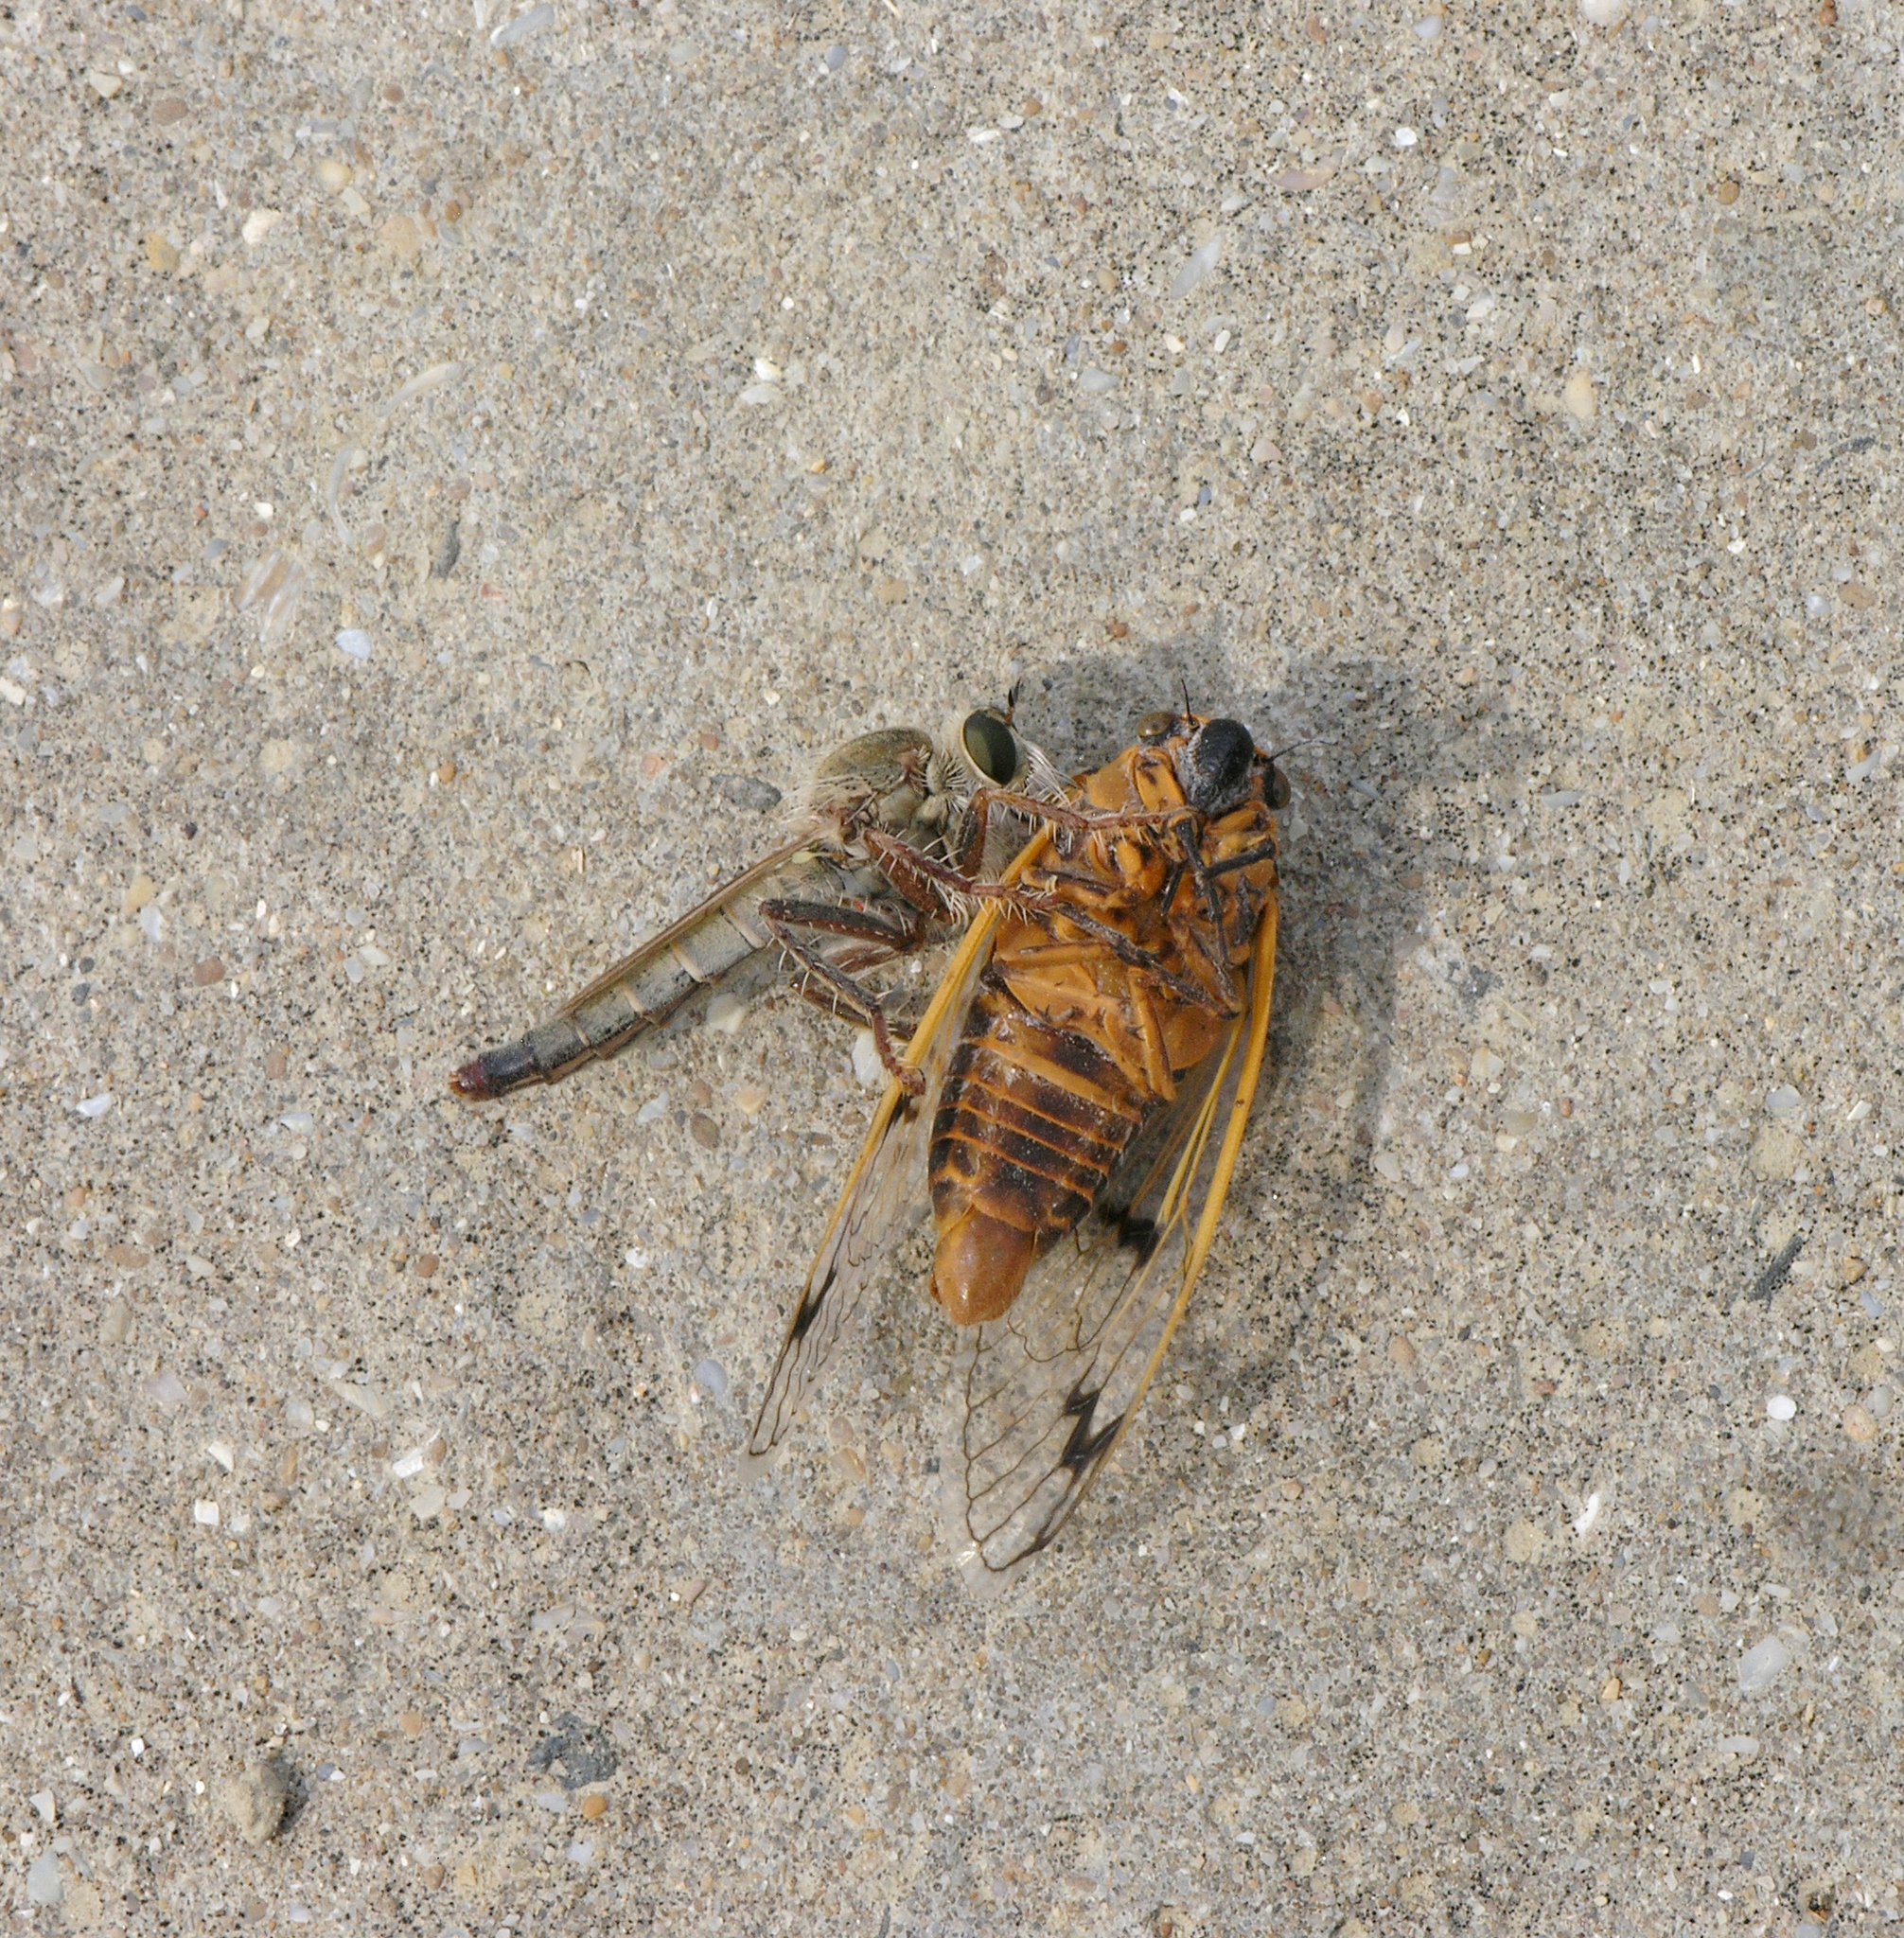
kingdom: Animalia
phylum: Arthropoda
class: Insecta
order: Hemiptera
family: Cicadidae
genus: Psalmocharias
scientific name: Psalmocharias querulus
